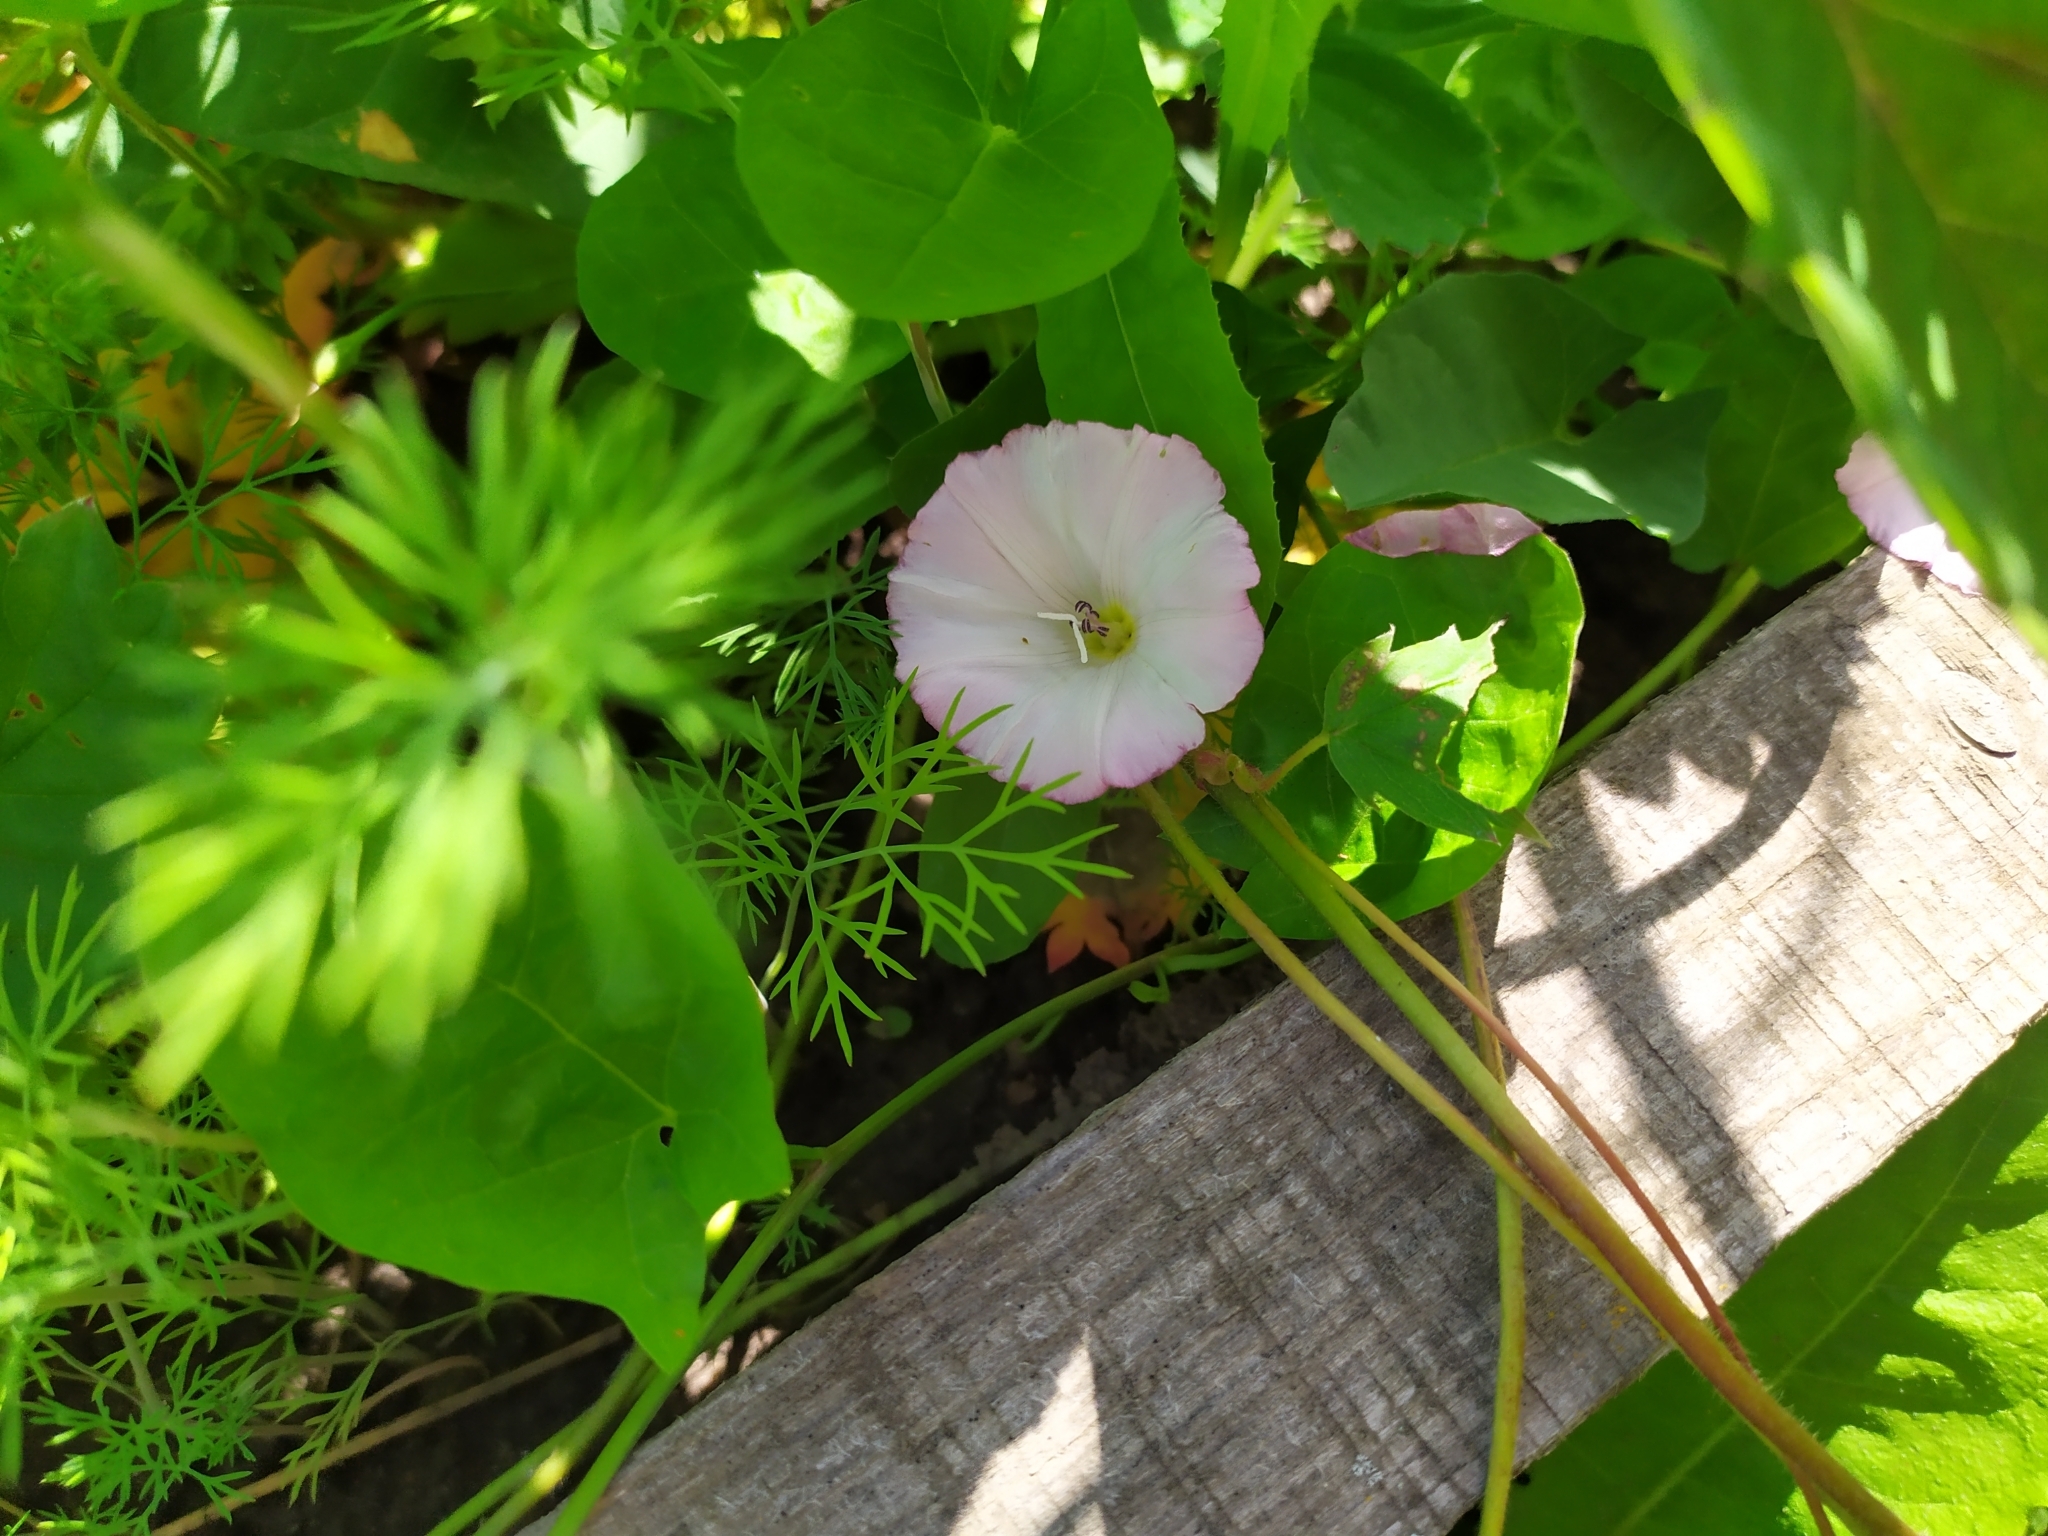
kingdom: Plantae
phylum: Tracheophyta
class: Magnoliopsida
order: Solanales
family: Convolvulaceae
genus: Convolvulus
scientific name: Convolvulus arvensis
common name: Field bindweed
